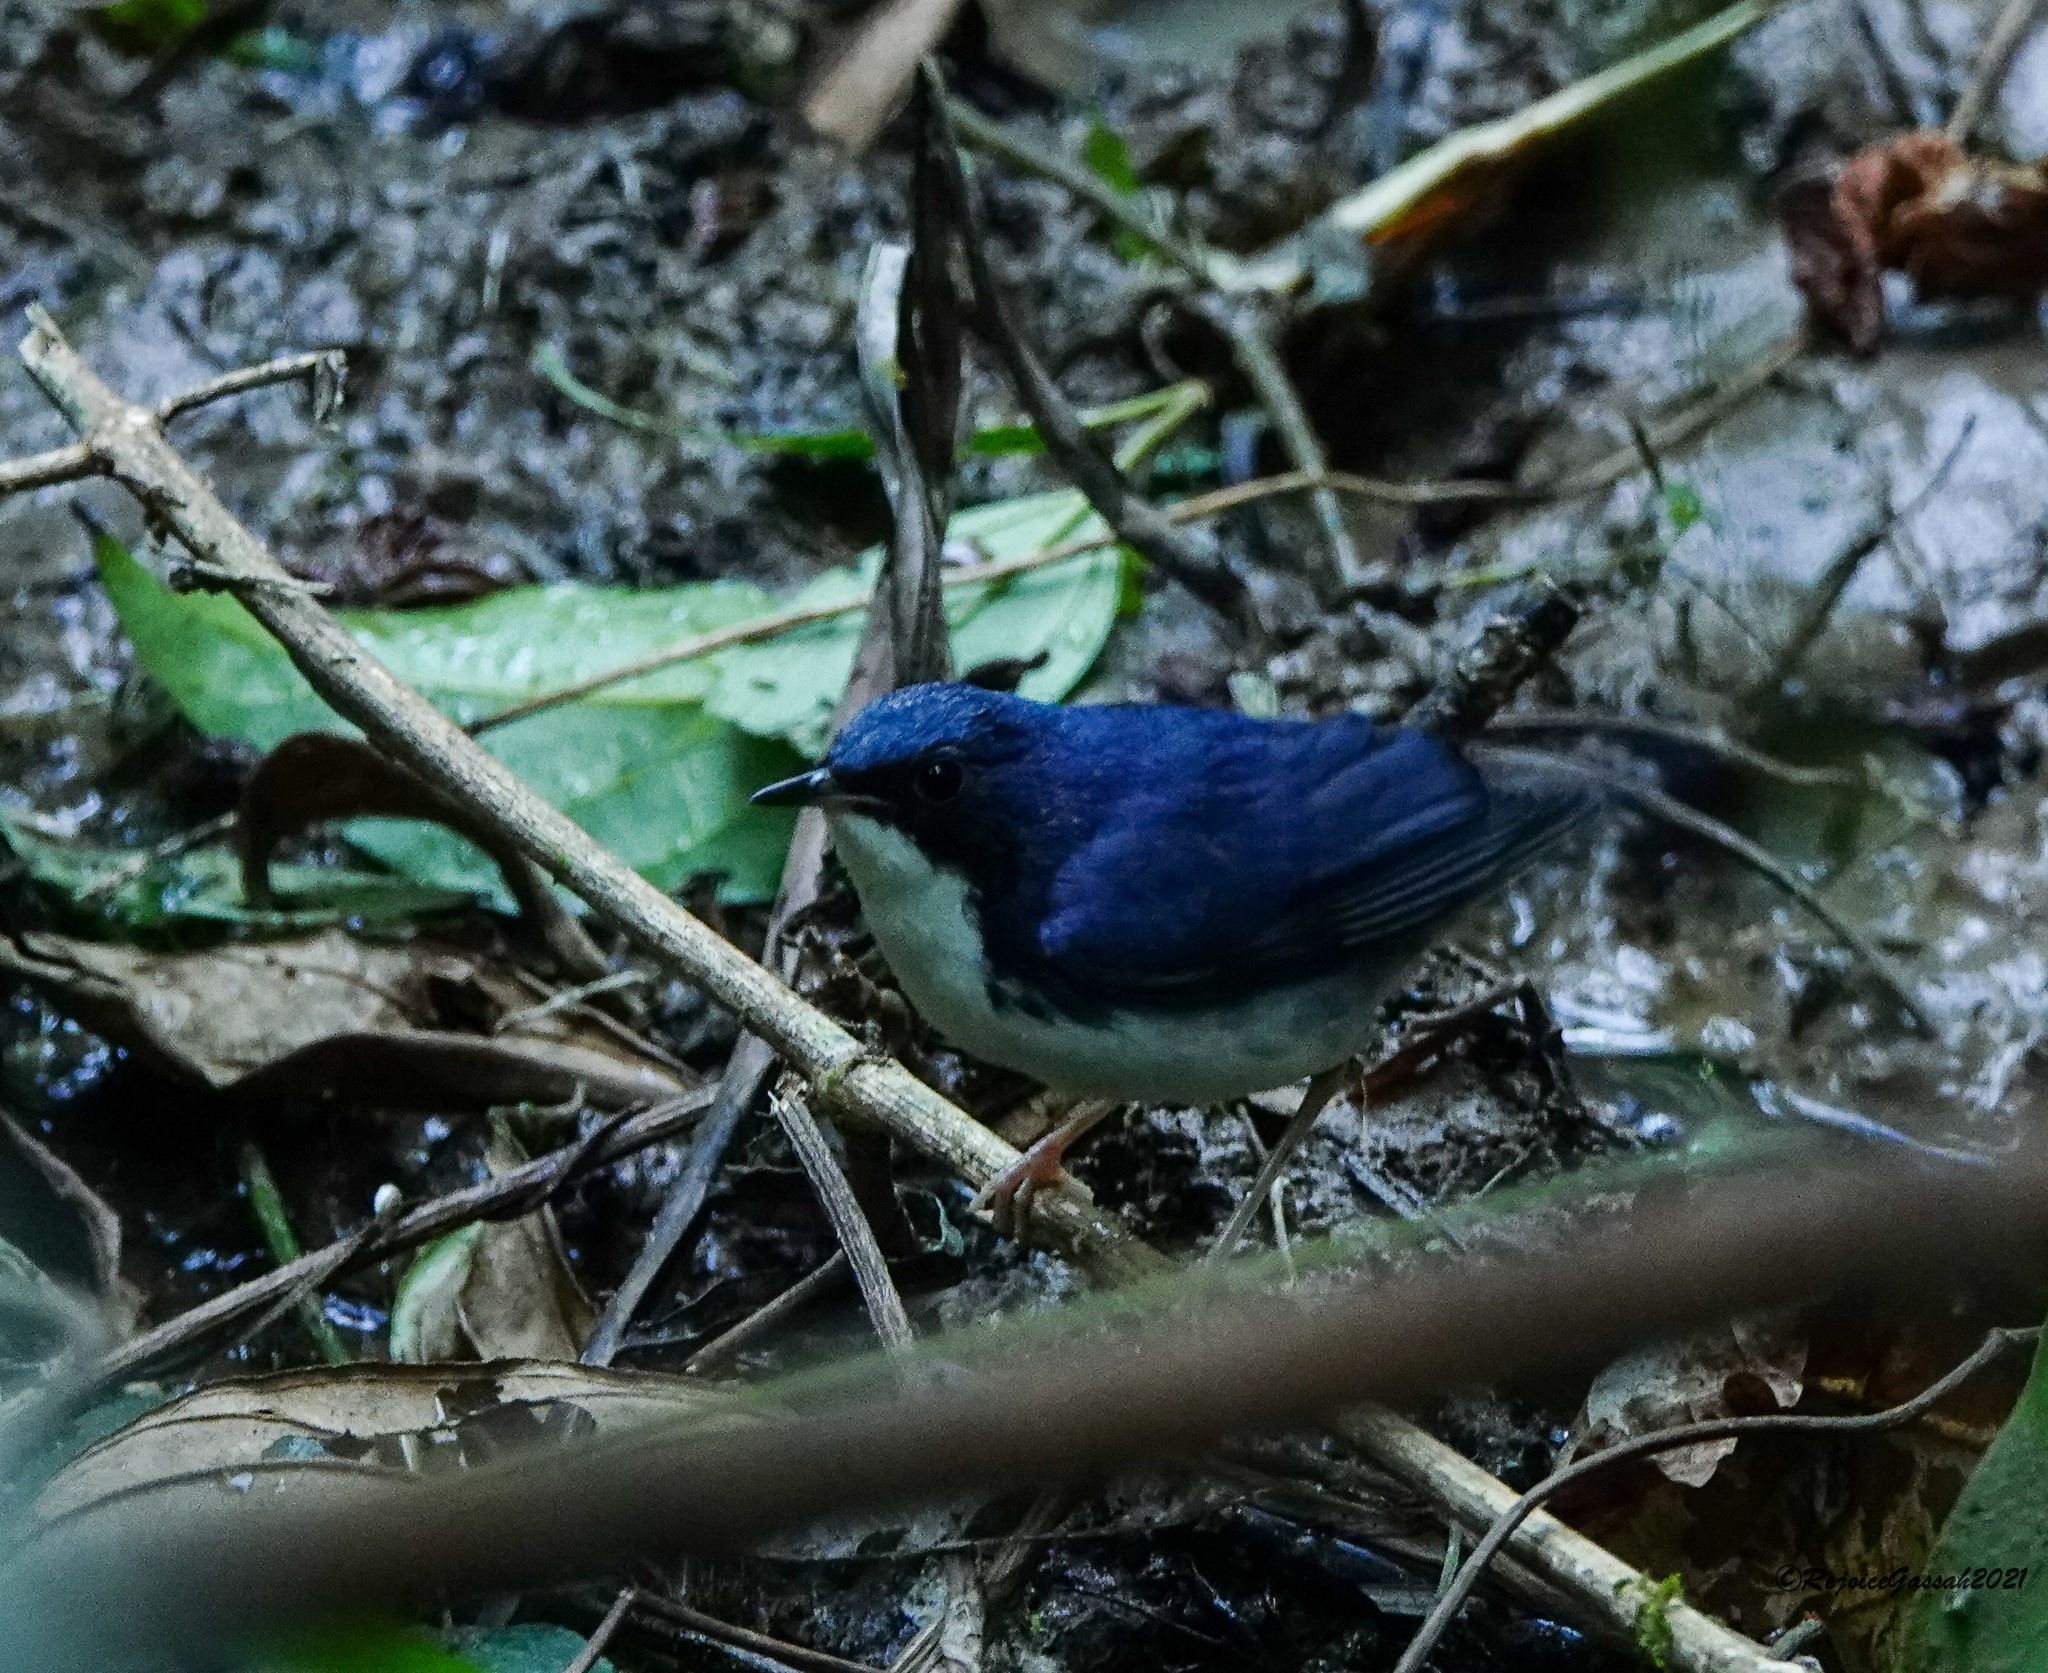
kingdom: Animalia
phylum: Chordata
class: Aves
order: Passeriformes
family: Muscicapidae
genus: Luscinia
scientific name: Luscinia cyane
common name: Siberian blue robin
